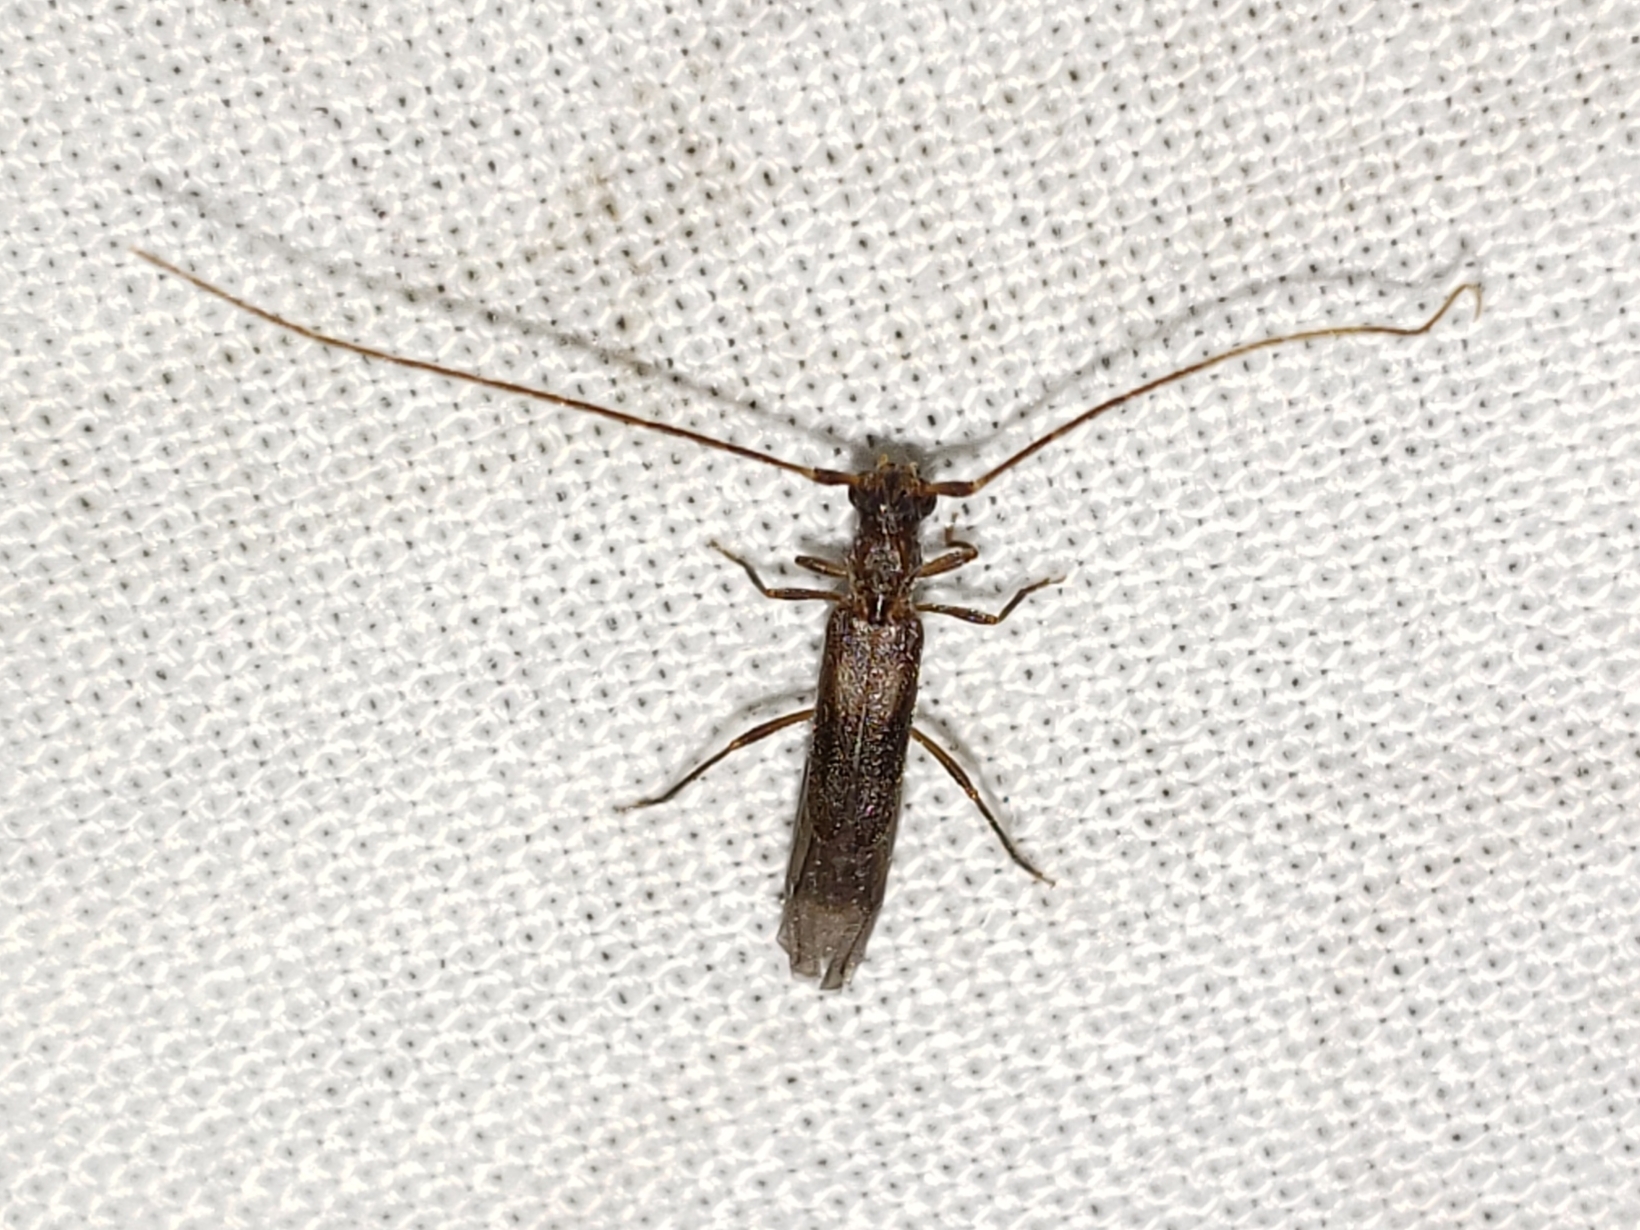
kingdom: Animalia
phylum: Arthropoda
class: Insecta
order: Coleoptera
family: Cerambycidae
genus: Methia
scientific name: Methia necydalea
